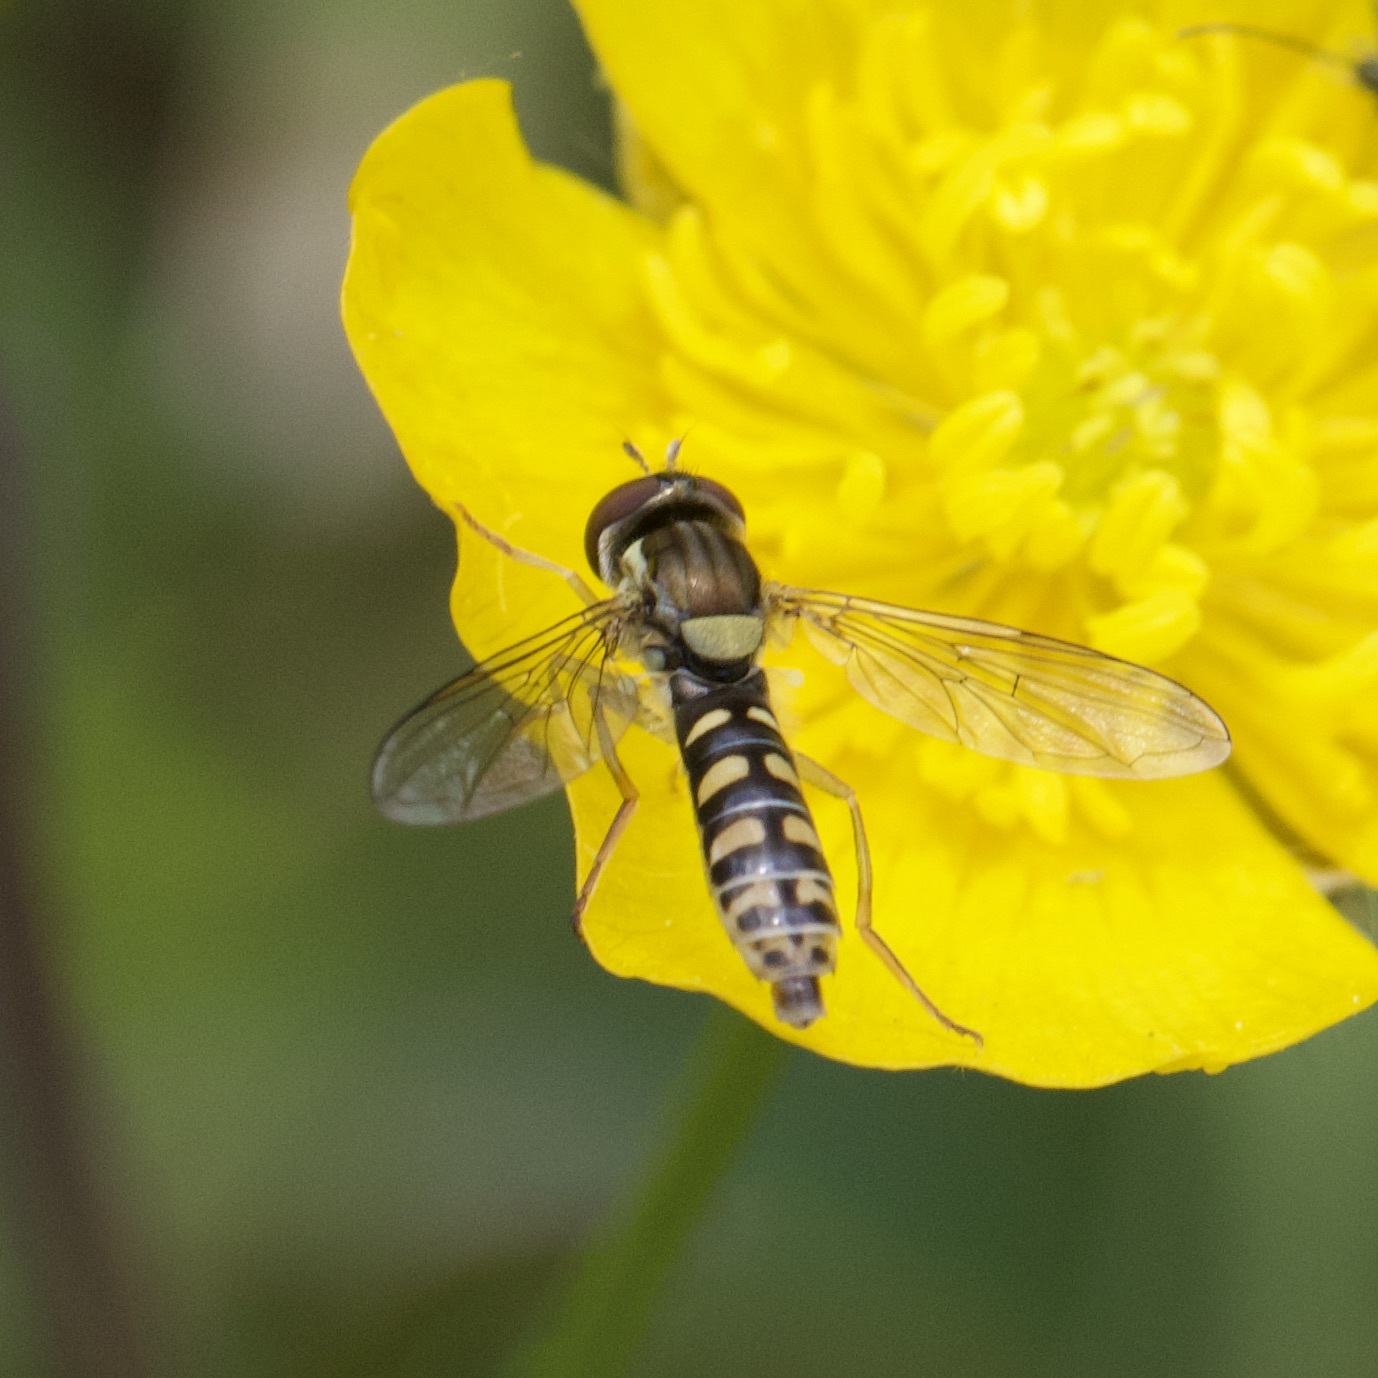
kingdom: Animalia
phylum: Arthropoda
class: Insecta
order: Diptera
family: Syrphidae
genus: Sphaerophoria
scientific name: Sphaerophoria
